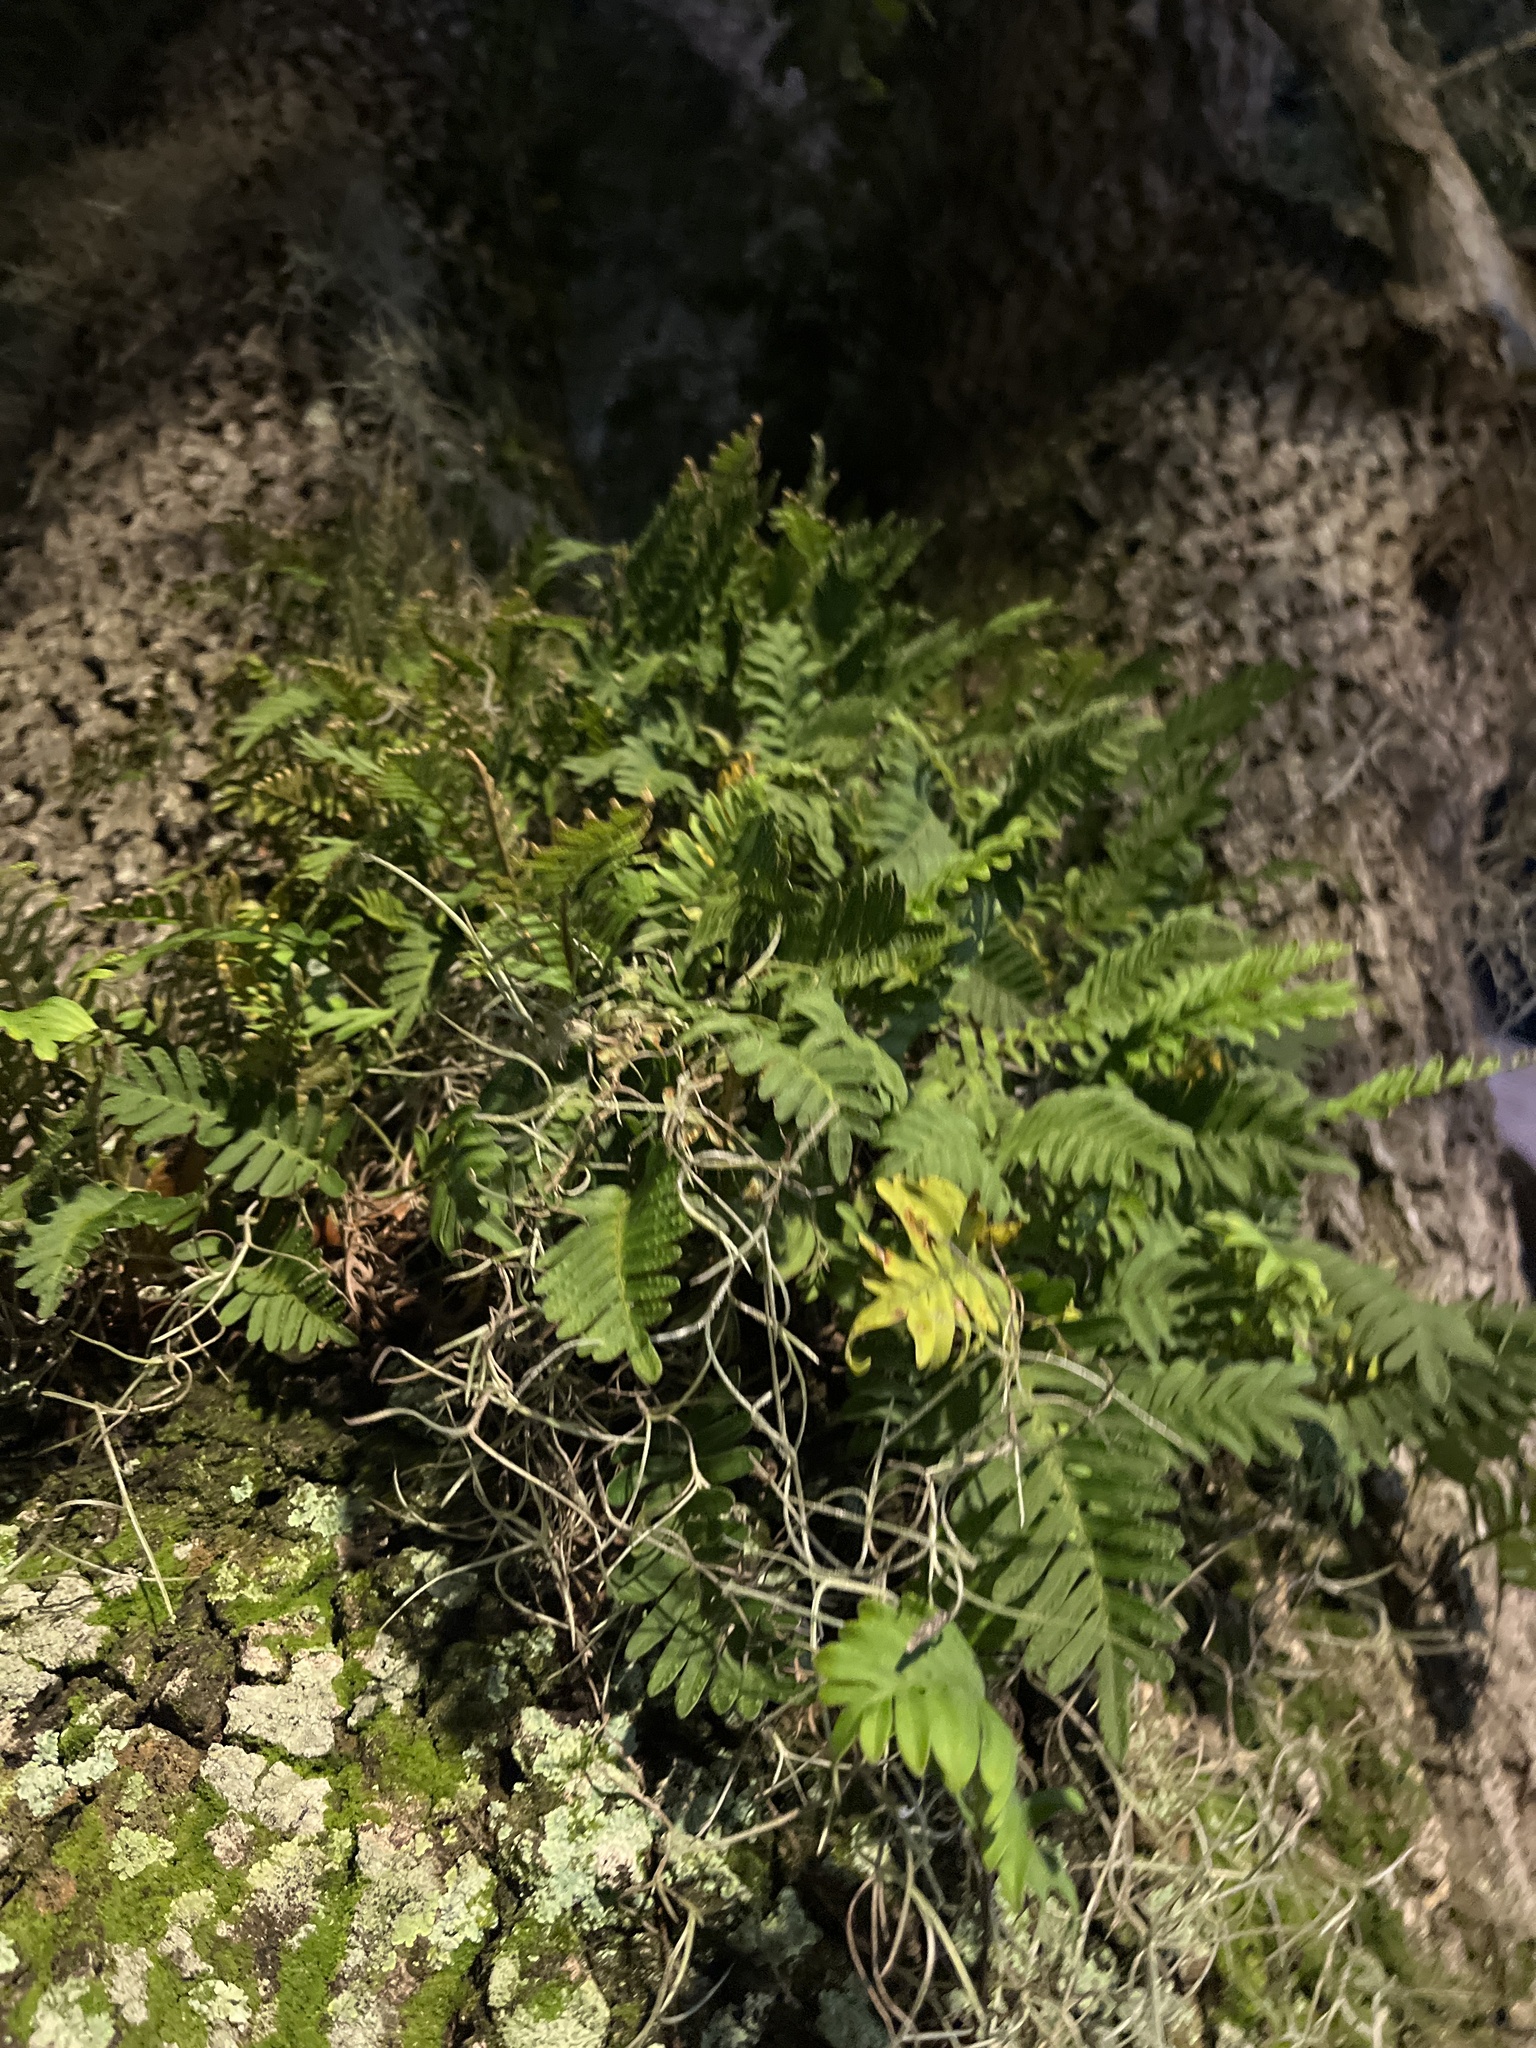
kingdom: Plantae
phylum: Tracheophyta
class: Polypodiopsida
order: Polypodiales
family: Polypodiaceae
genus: Pleopeltis
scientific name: Pleopeltis michauxiana
